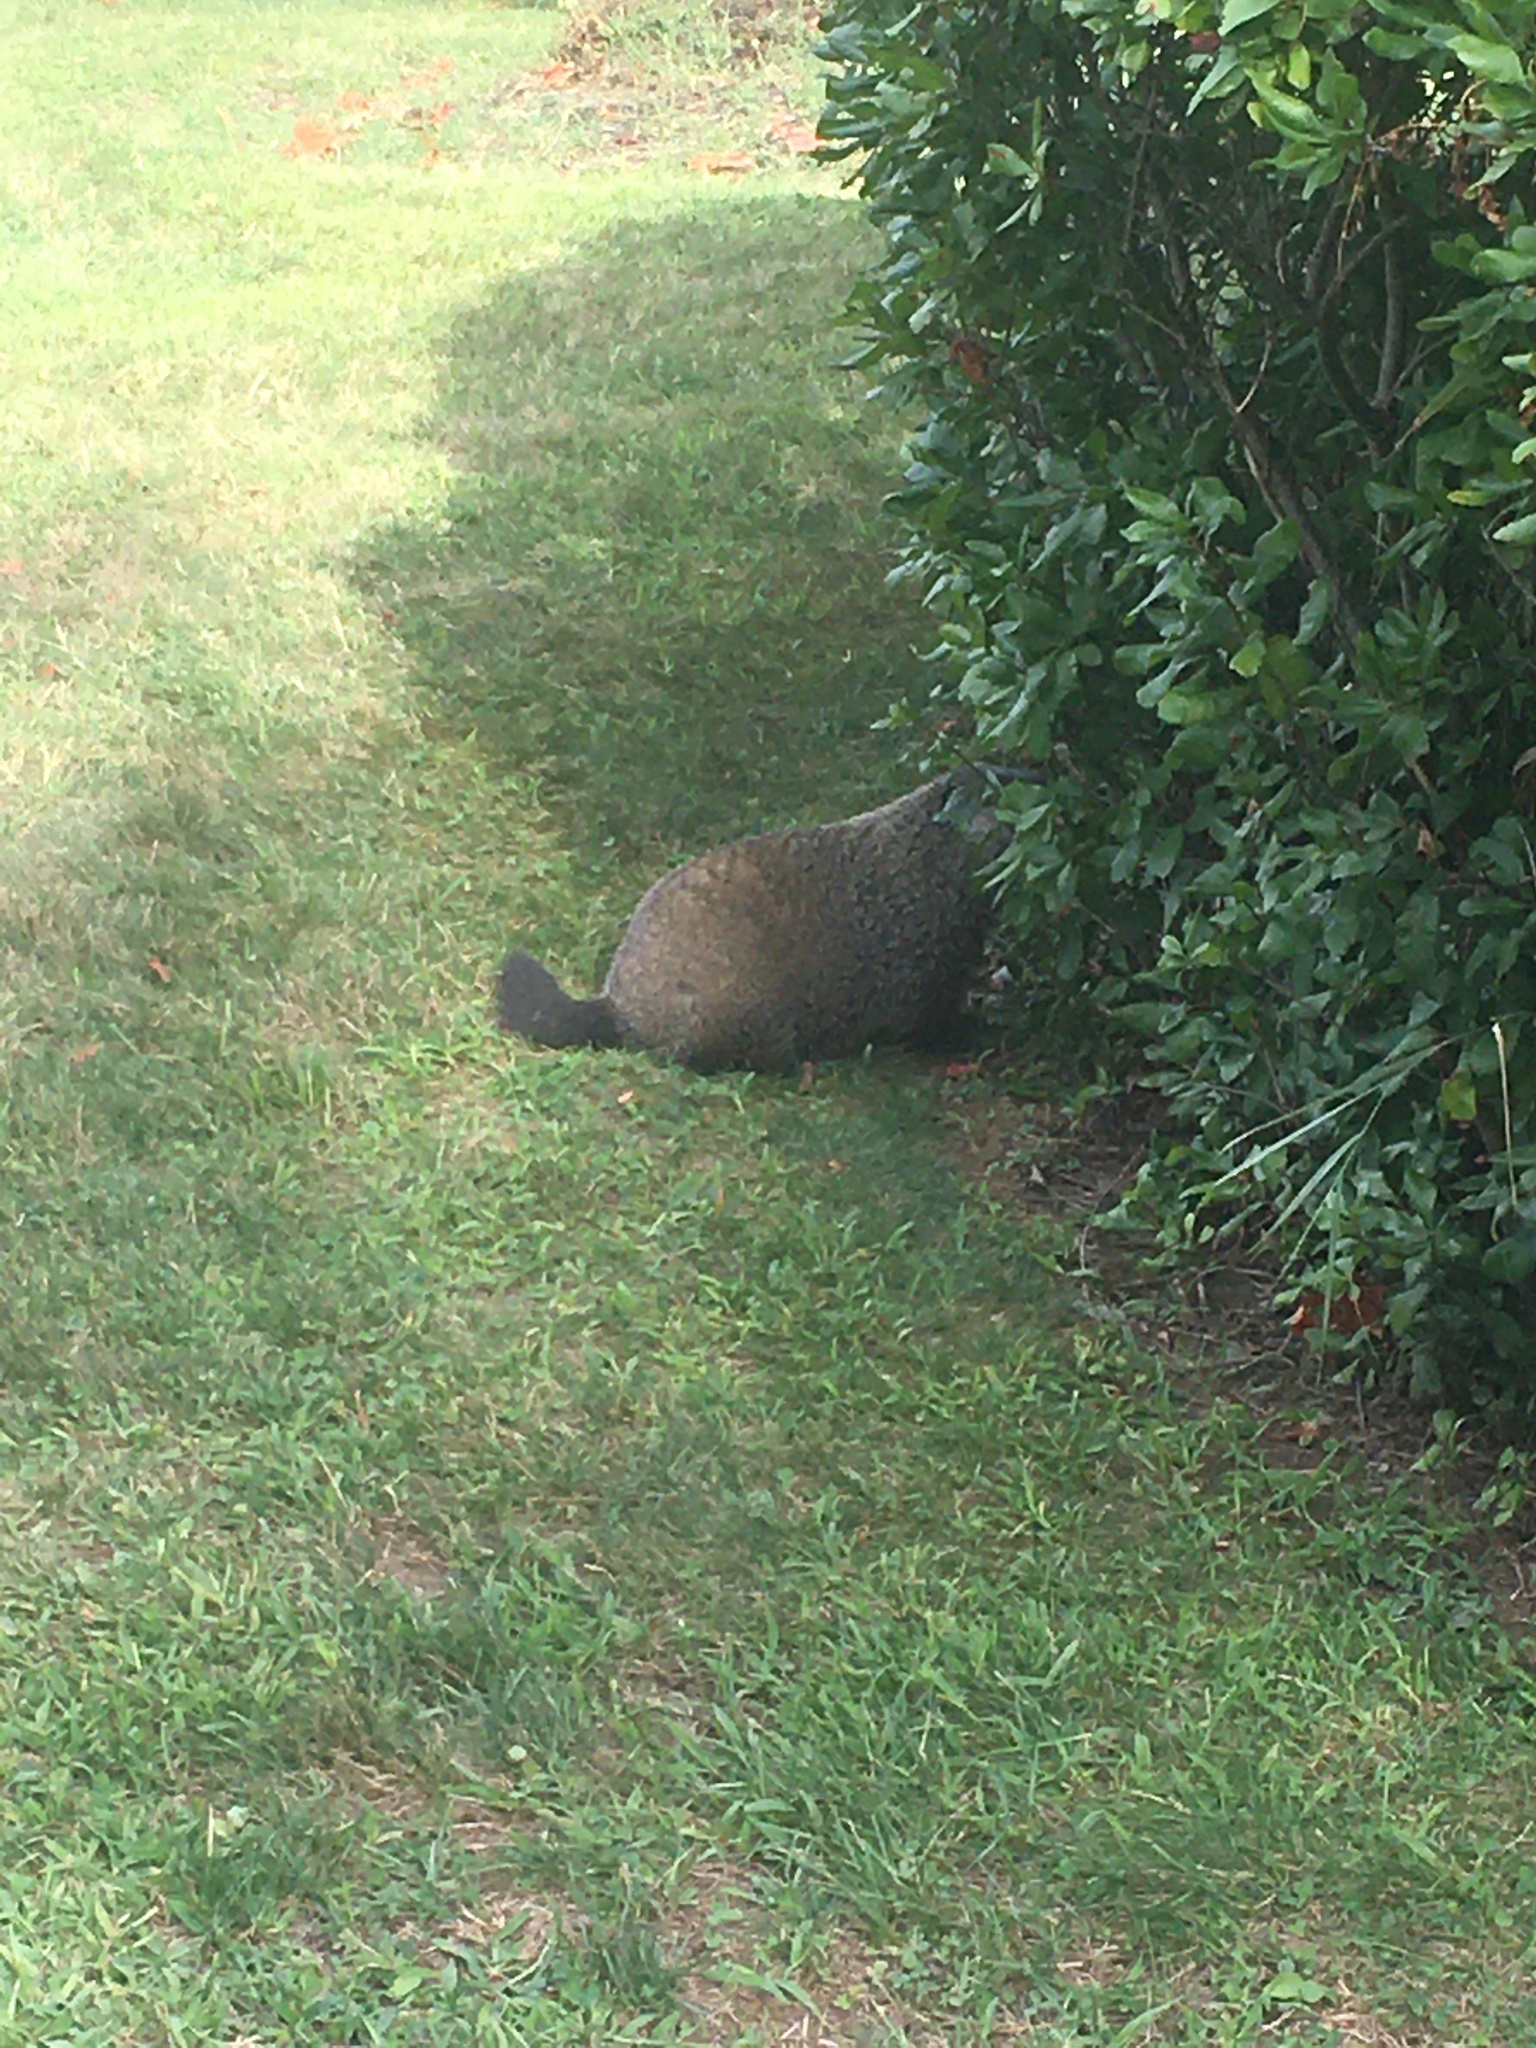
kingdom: Animalia
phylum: Chordata
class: Mammalia
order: Rodentia
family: Sciuridae
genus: Marmota
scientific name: Marmota monax
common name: Groundhog
